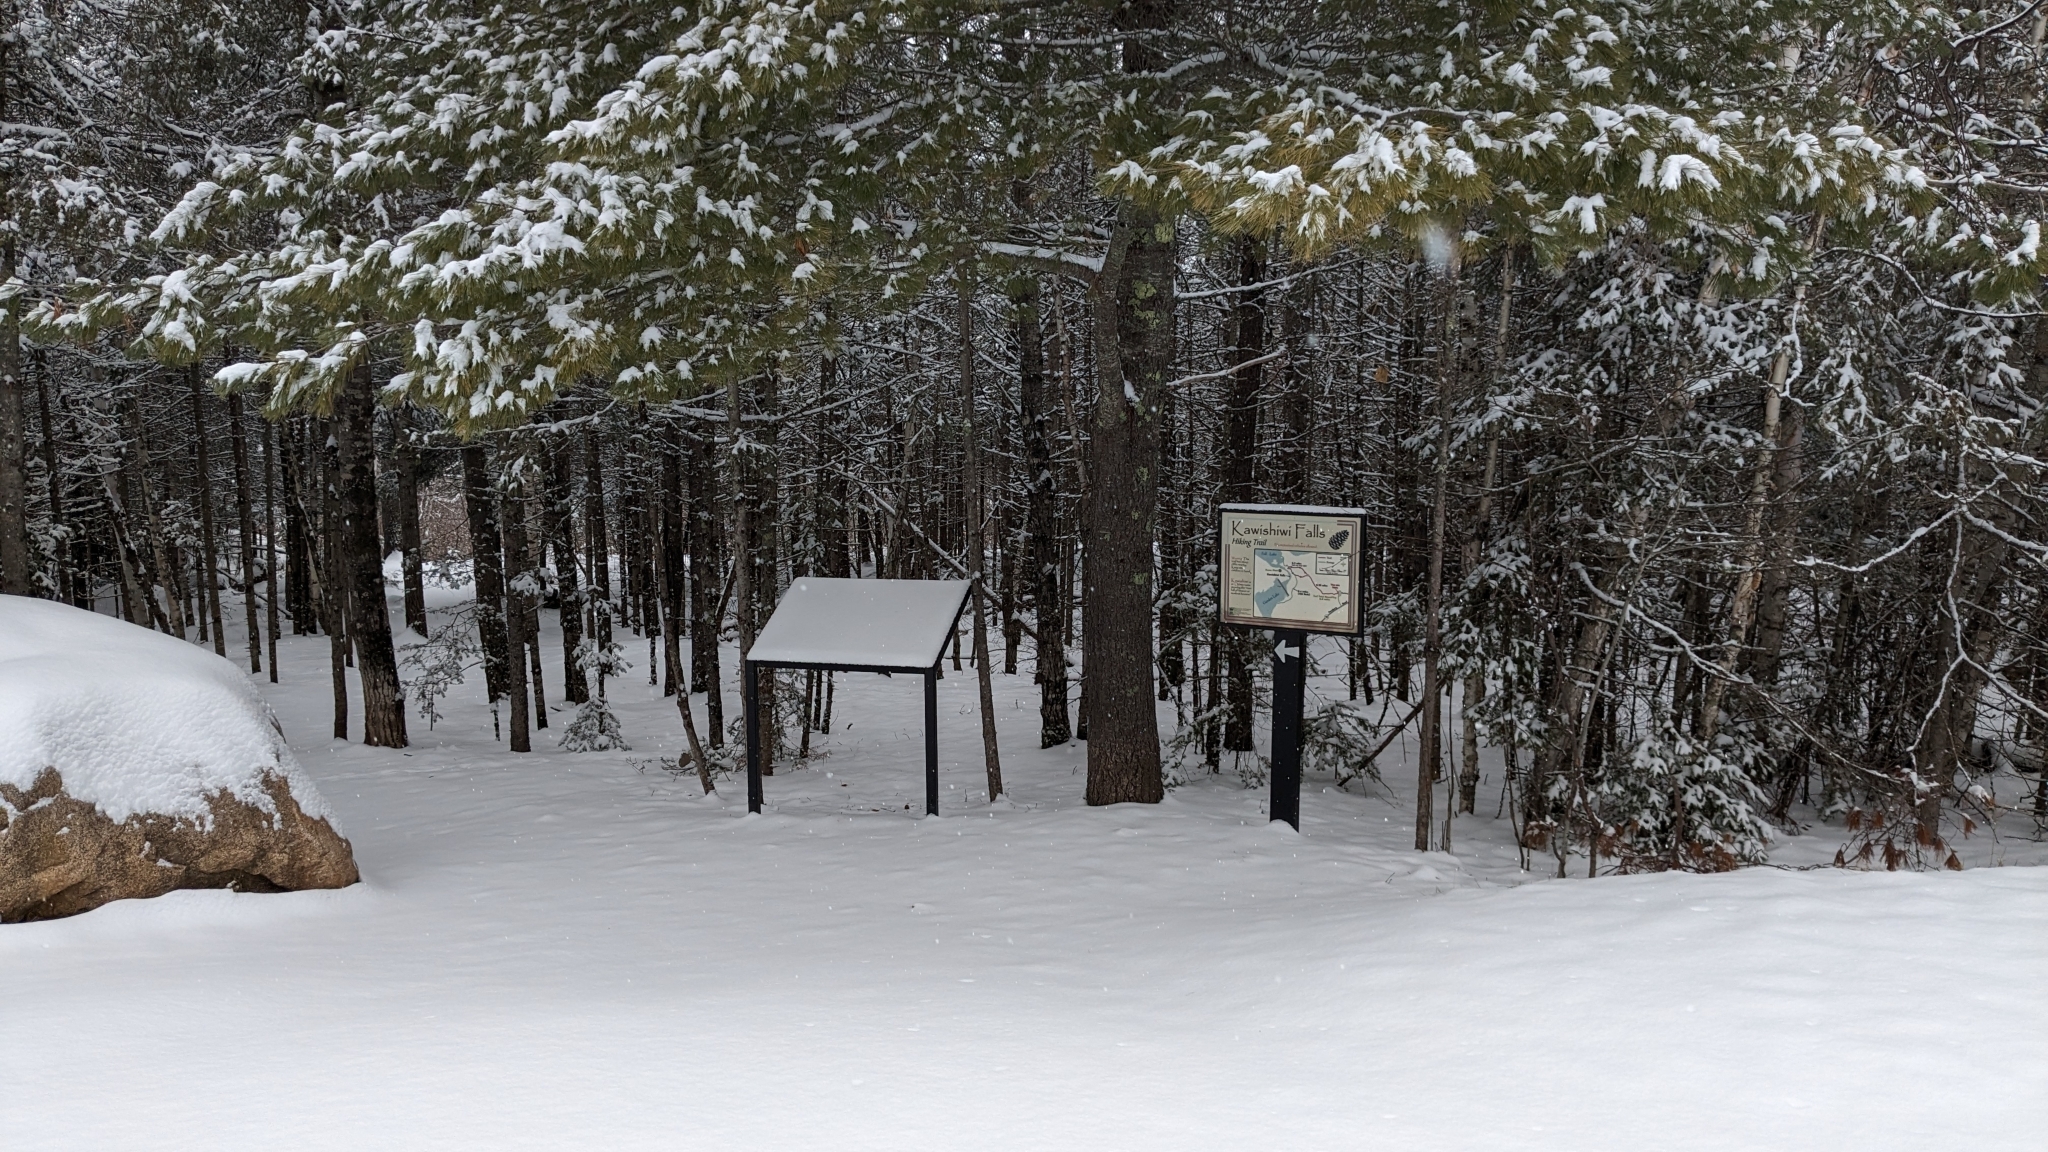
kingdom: Plantae
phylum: Tracheophyta
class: Pinopsida
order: Pinales
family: Pinaceae
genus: Pinus
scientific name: Pinus strobus
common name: Weymouth pine
